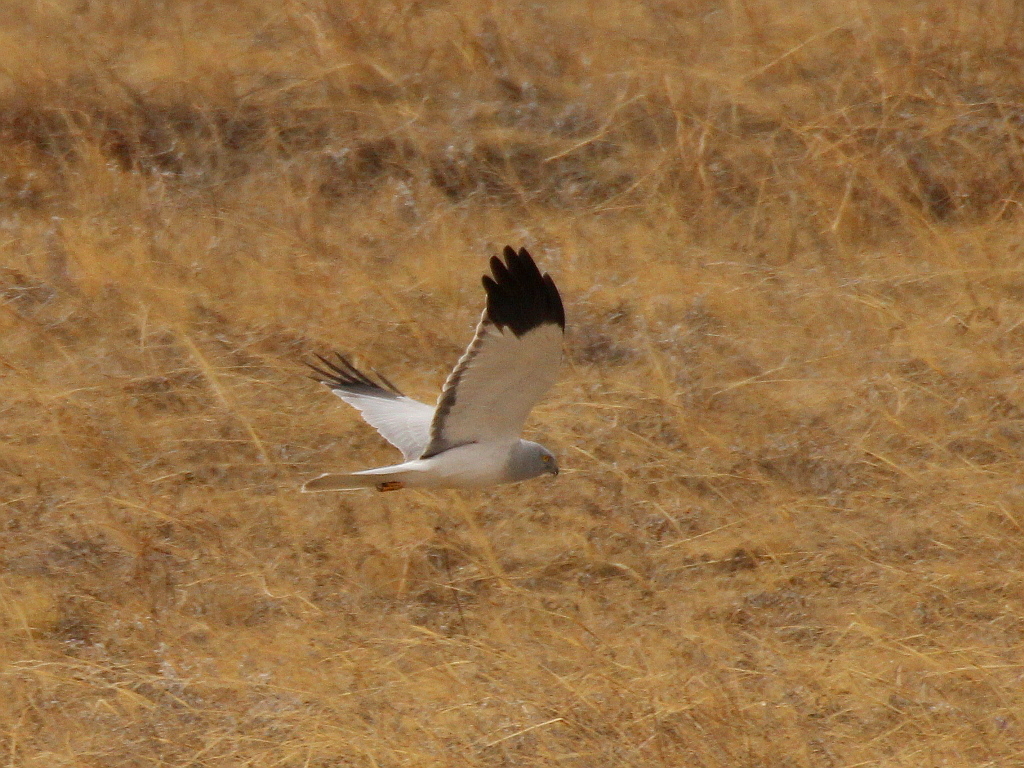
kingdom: Animalia
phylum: Chordata
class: Aves
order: Accipitriformes
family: Accipitridae
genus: Circus
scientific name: Circus cyaneus
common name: Hen harrier
